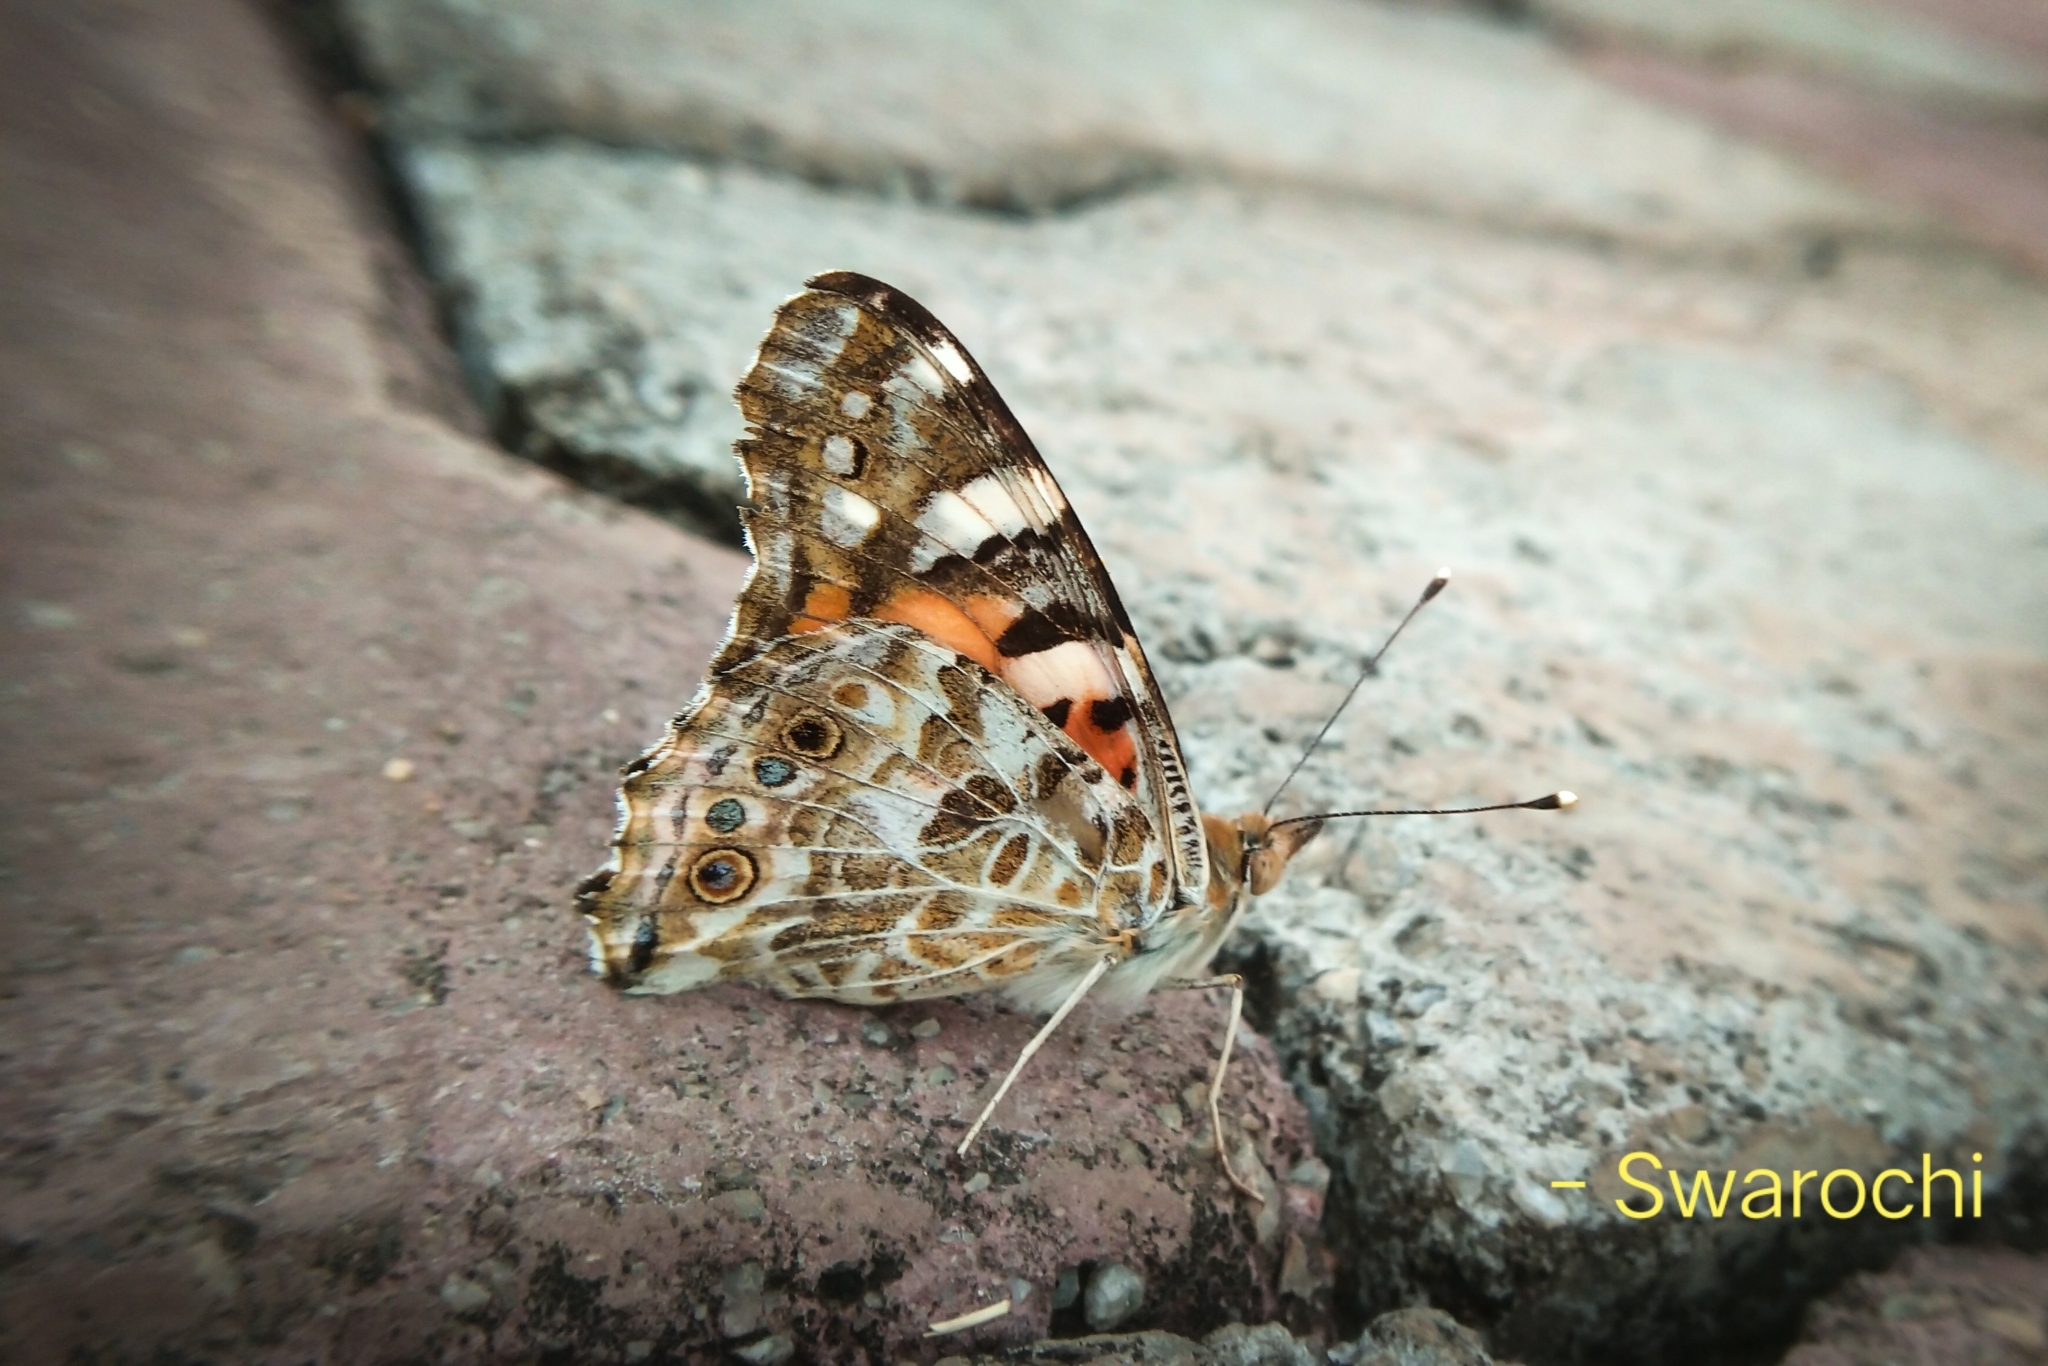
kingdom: Animalia
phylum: Arthropoda
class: Insecta
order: Lepidoptera
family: Nymphalidae
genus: Vanessa
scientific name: Vanessa cardui
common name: Painted lady
